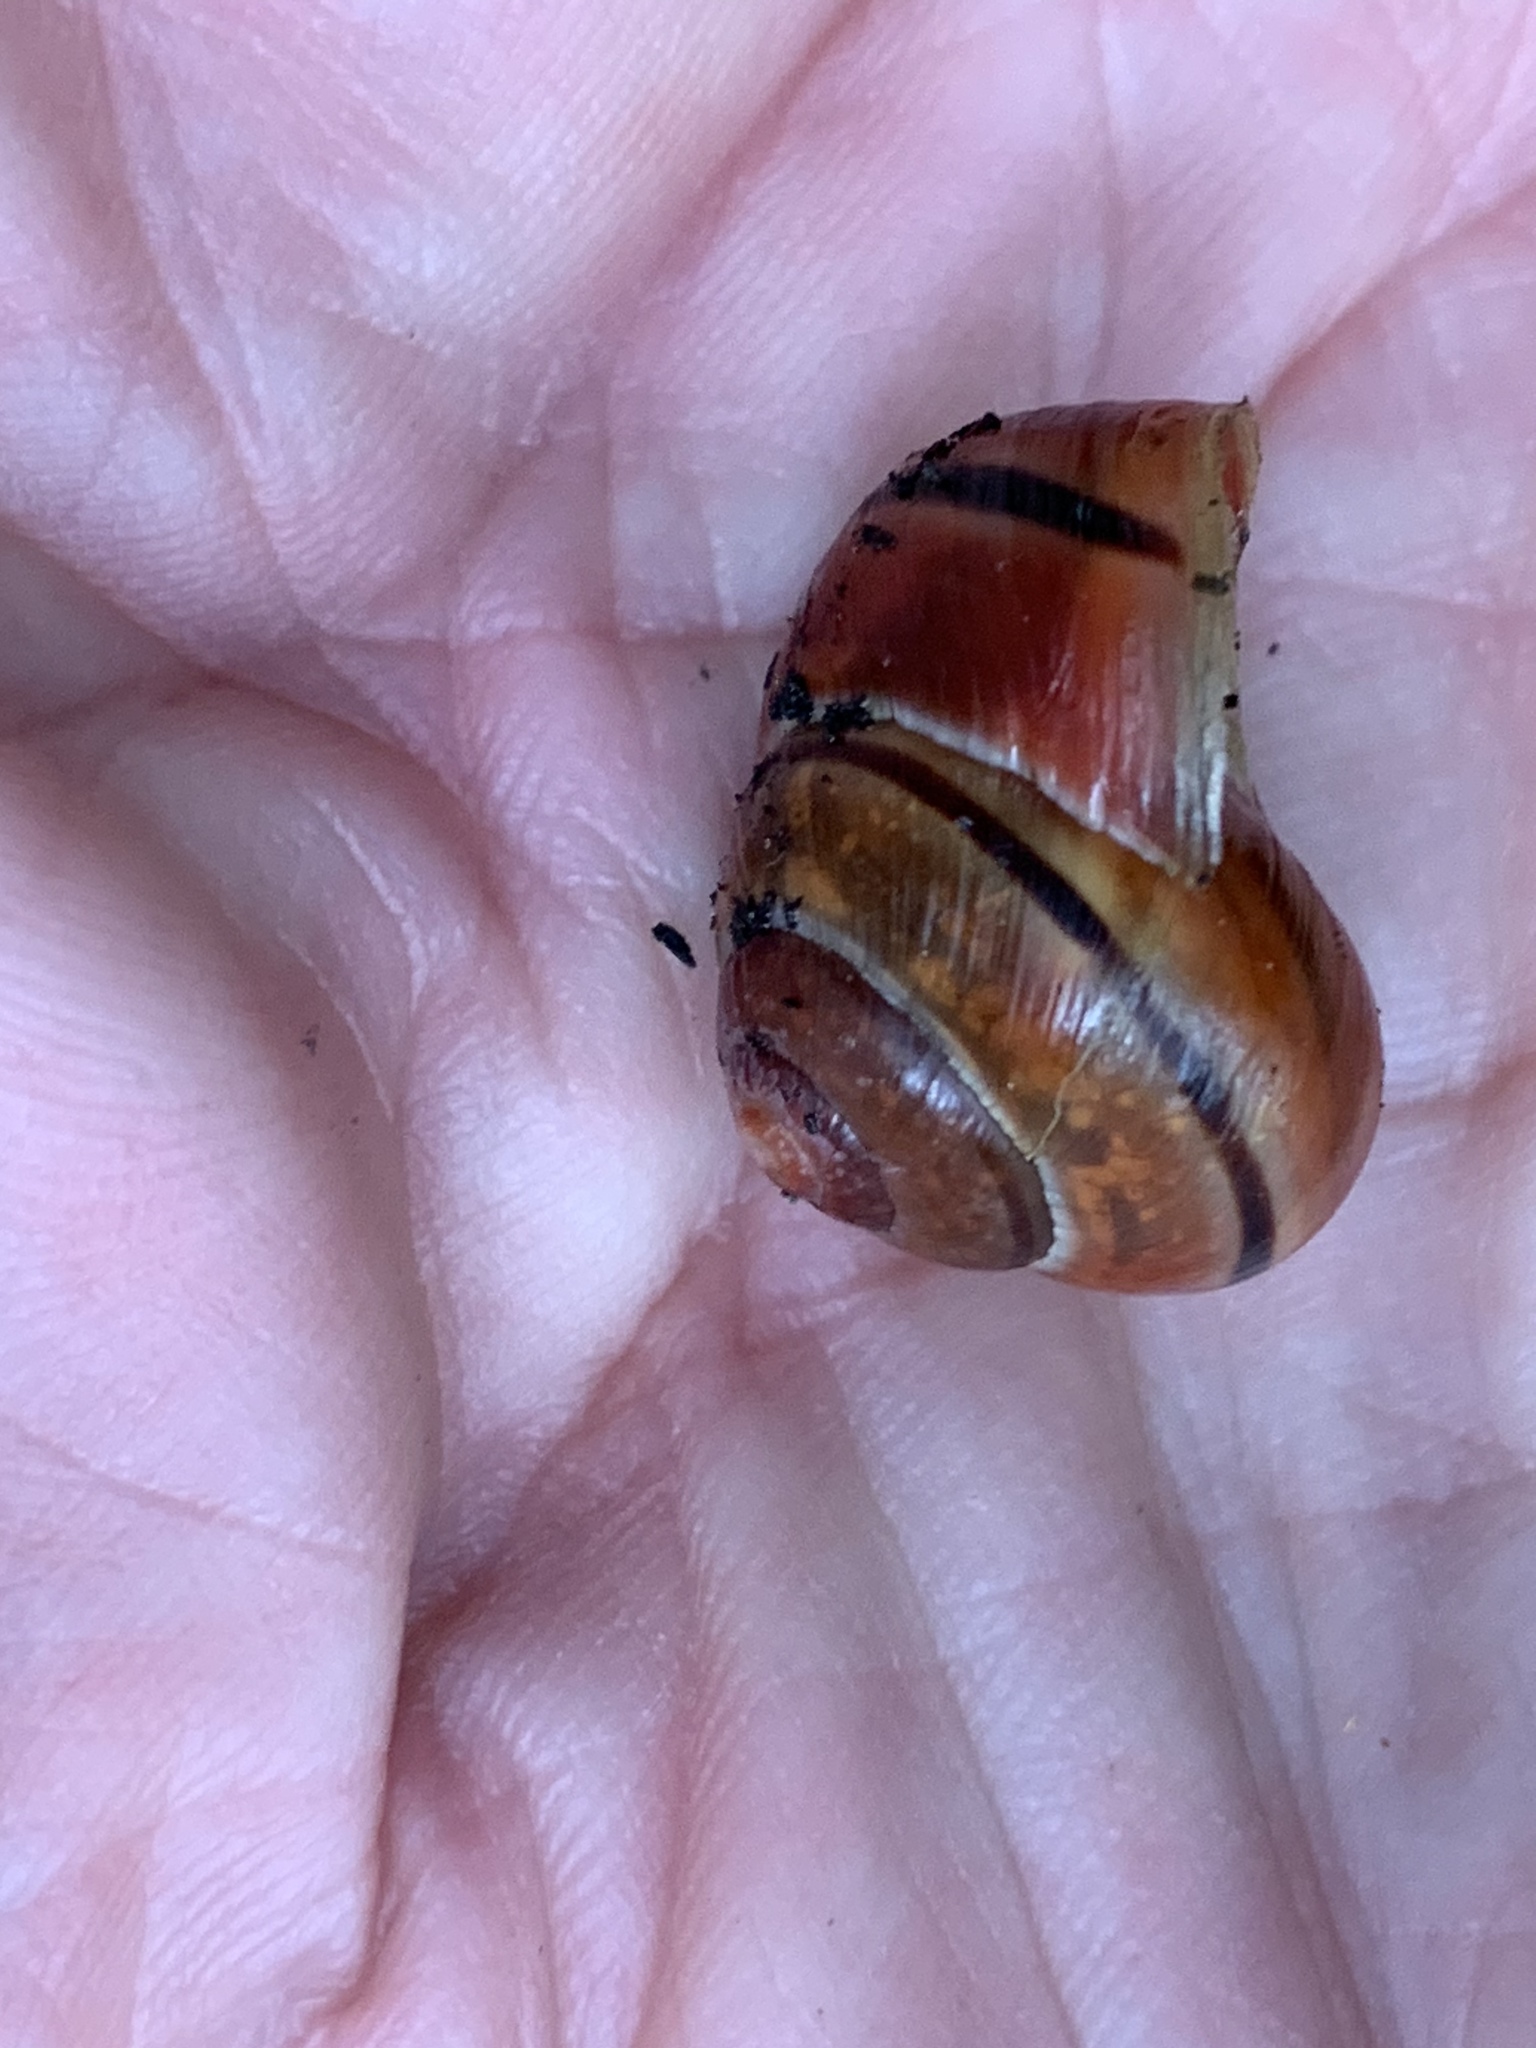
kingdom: Animalia
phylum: Mollusca
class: Gastropoda
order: Stylommatophora
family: Helicidae
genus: Cepaea
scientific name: Cepaea nemoralis
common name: Grovesnail
